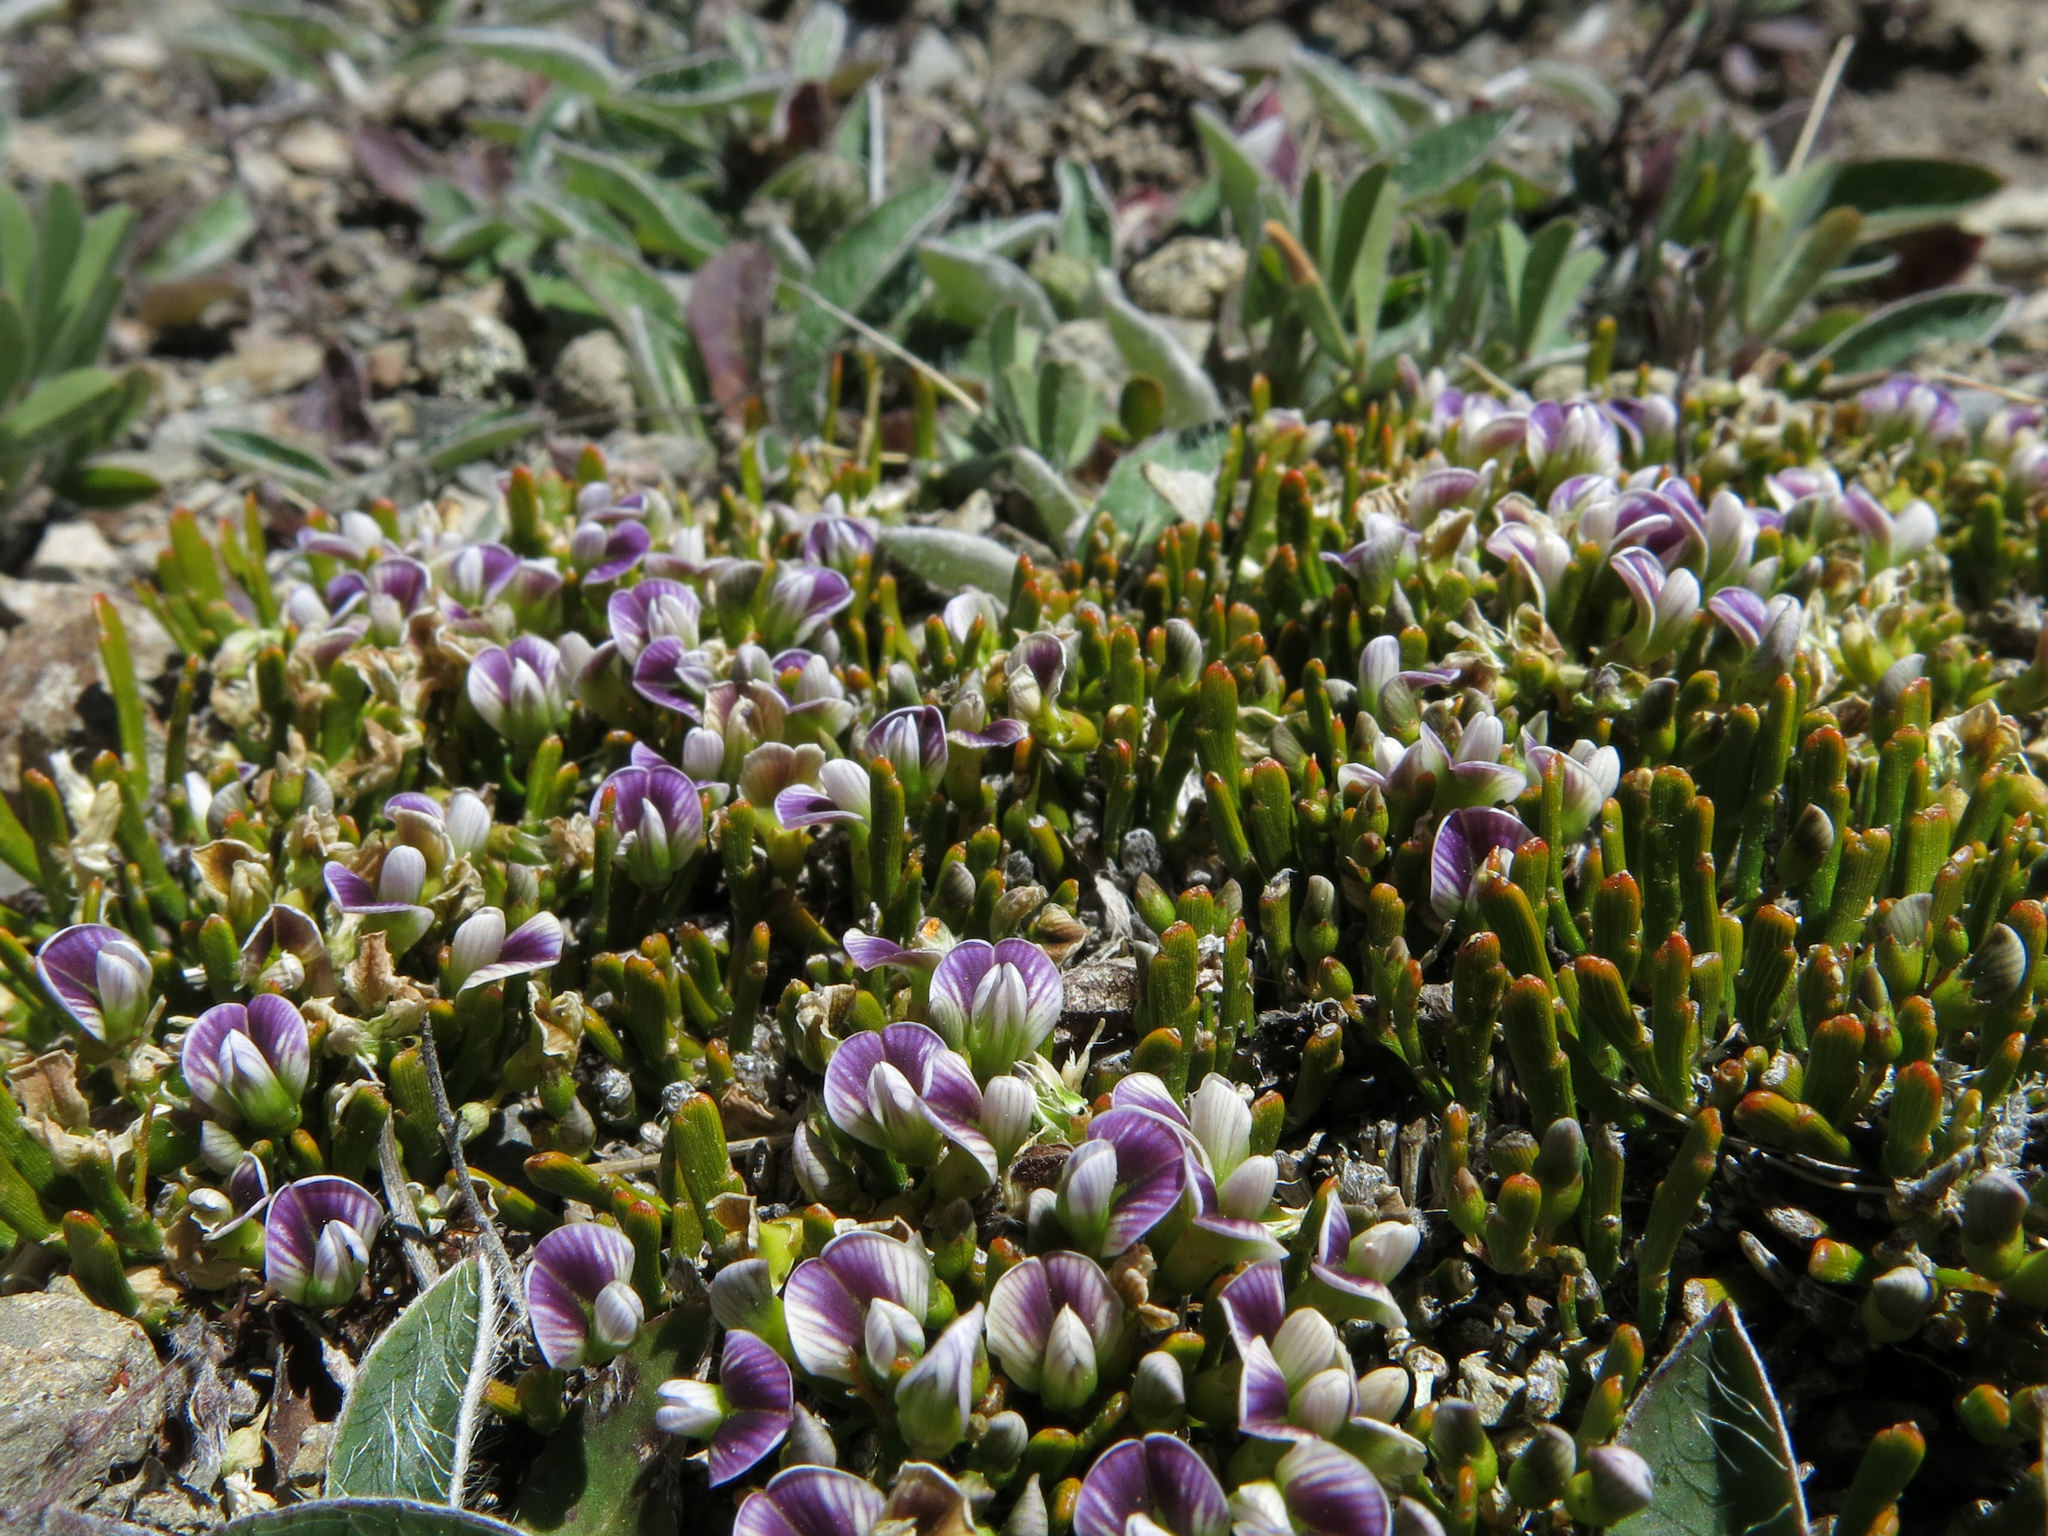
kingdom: Plantae
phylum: Tracheophyta
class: Magnoliopsida
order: Fabales
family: Fabaceae
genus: Carmichaelia
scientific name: Carmichaelia nana
